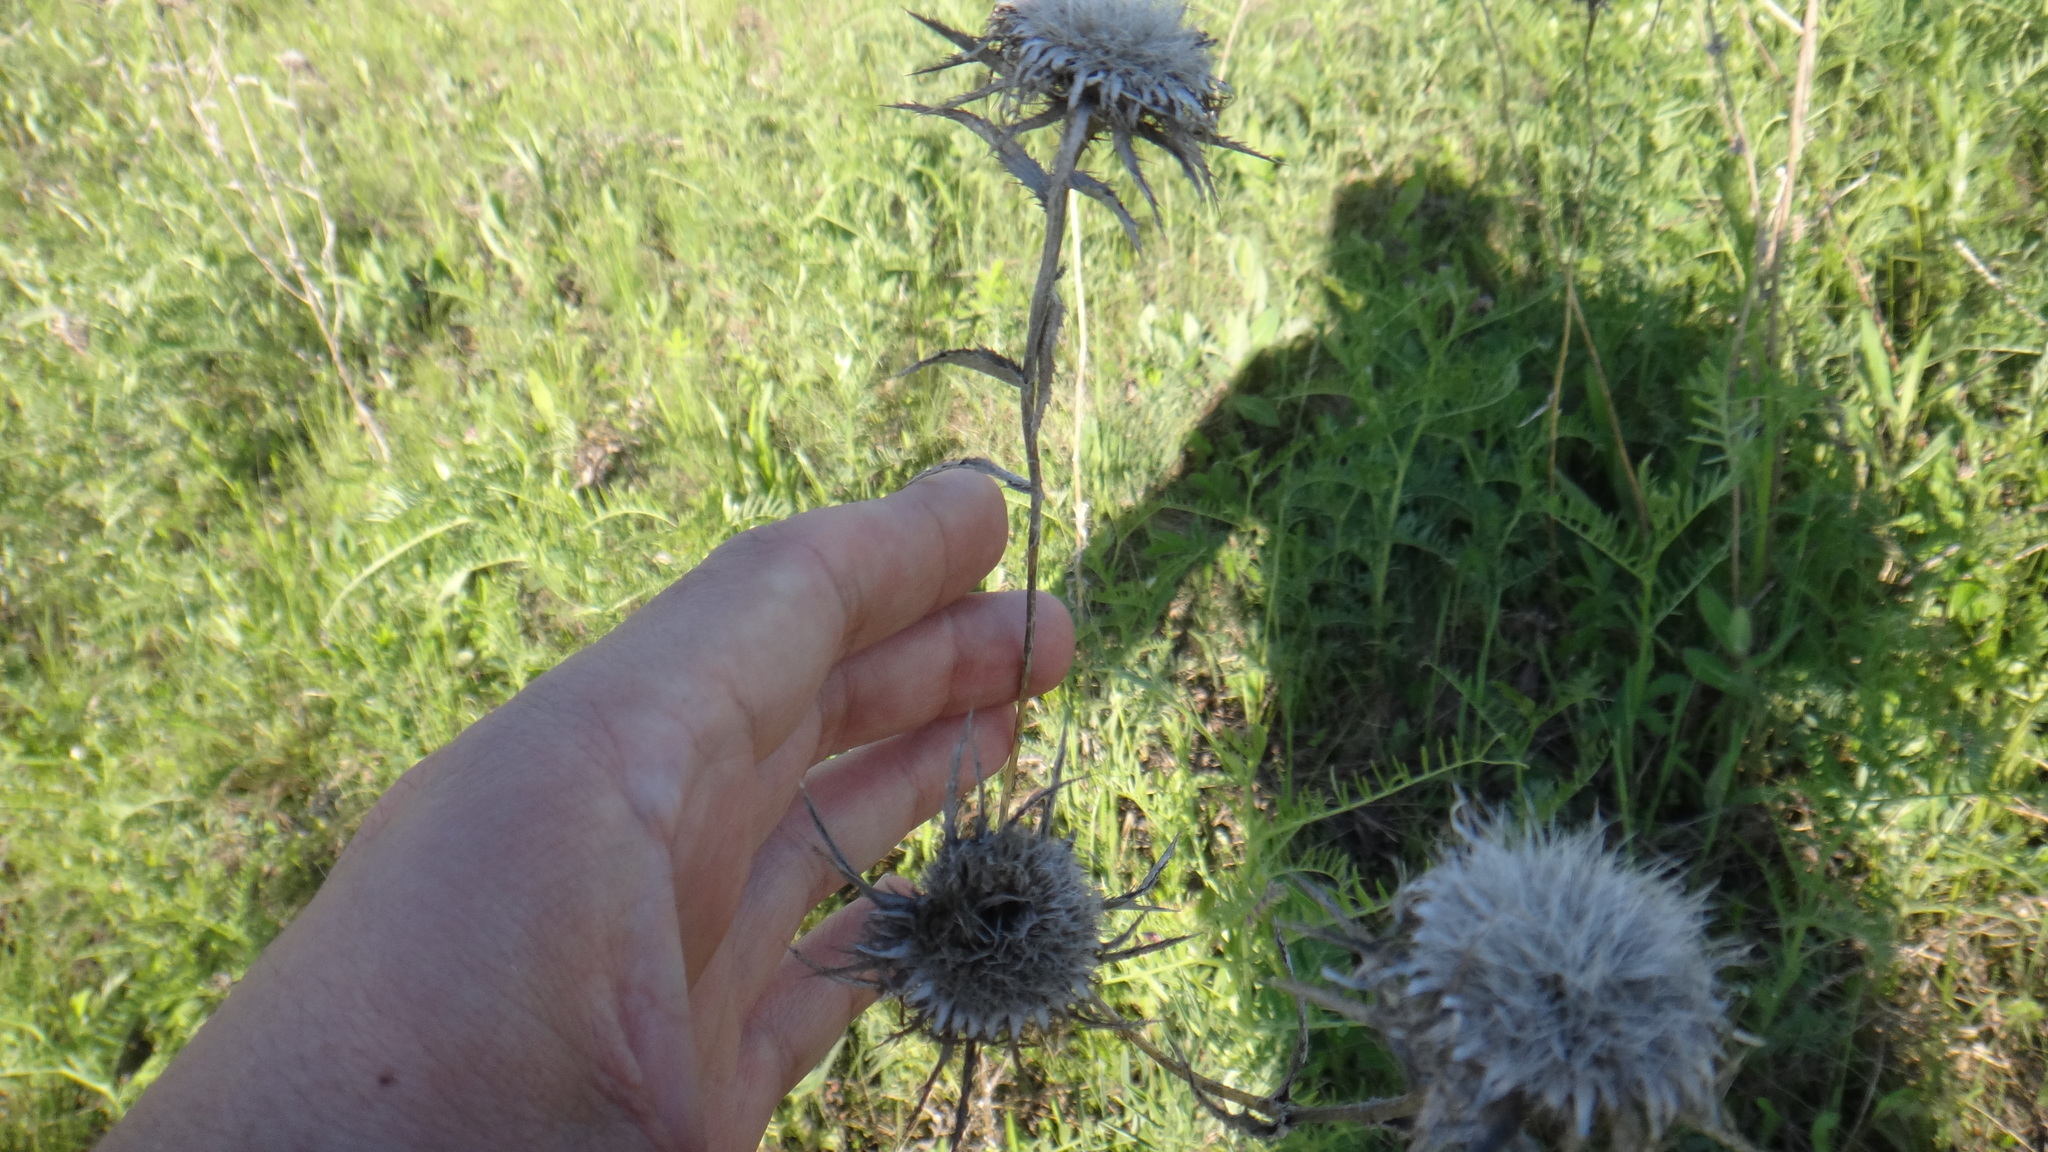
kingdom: Plantae
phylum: Tracheophyta
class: Magnoliopsida
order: Asterales
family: Asteraceae
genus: Carlina
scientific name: Carlina biebersteinii
